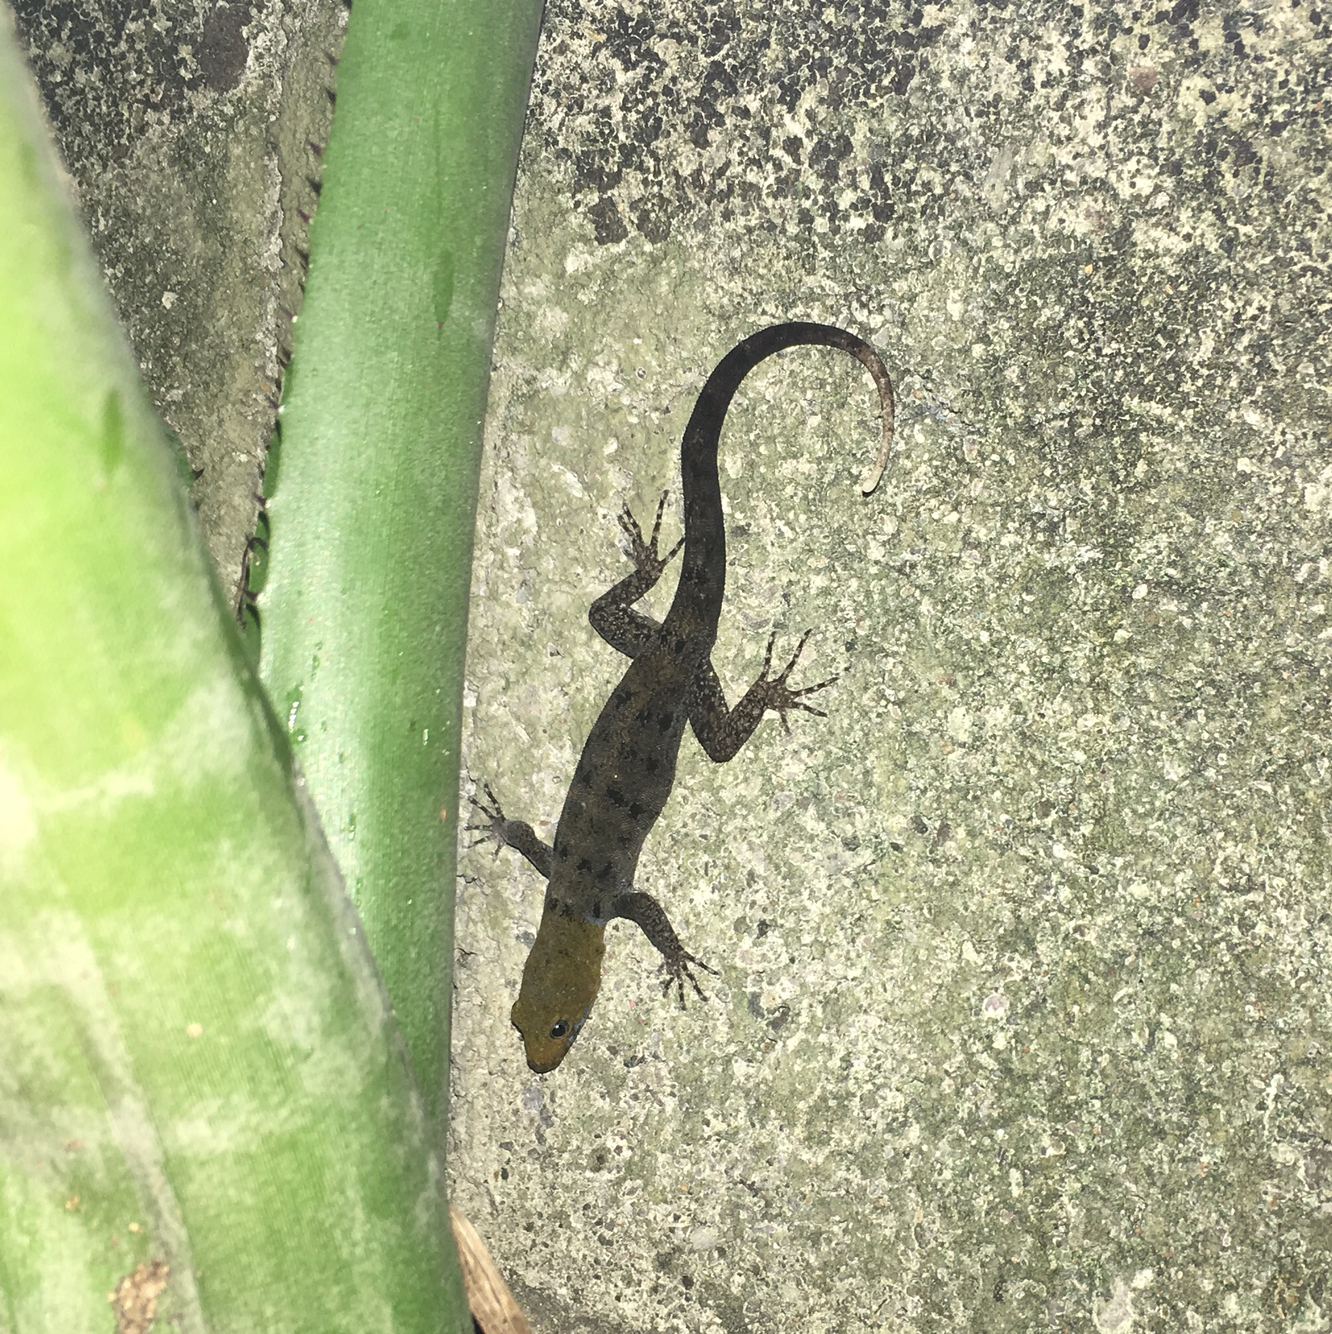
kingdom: Animalia
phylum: Chordata
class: Squamata
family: Sphaerodactylidae
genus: Gonatodes
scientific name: Gonatodes albogularis
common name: Yellow-headed gecko
